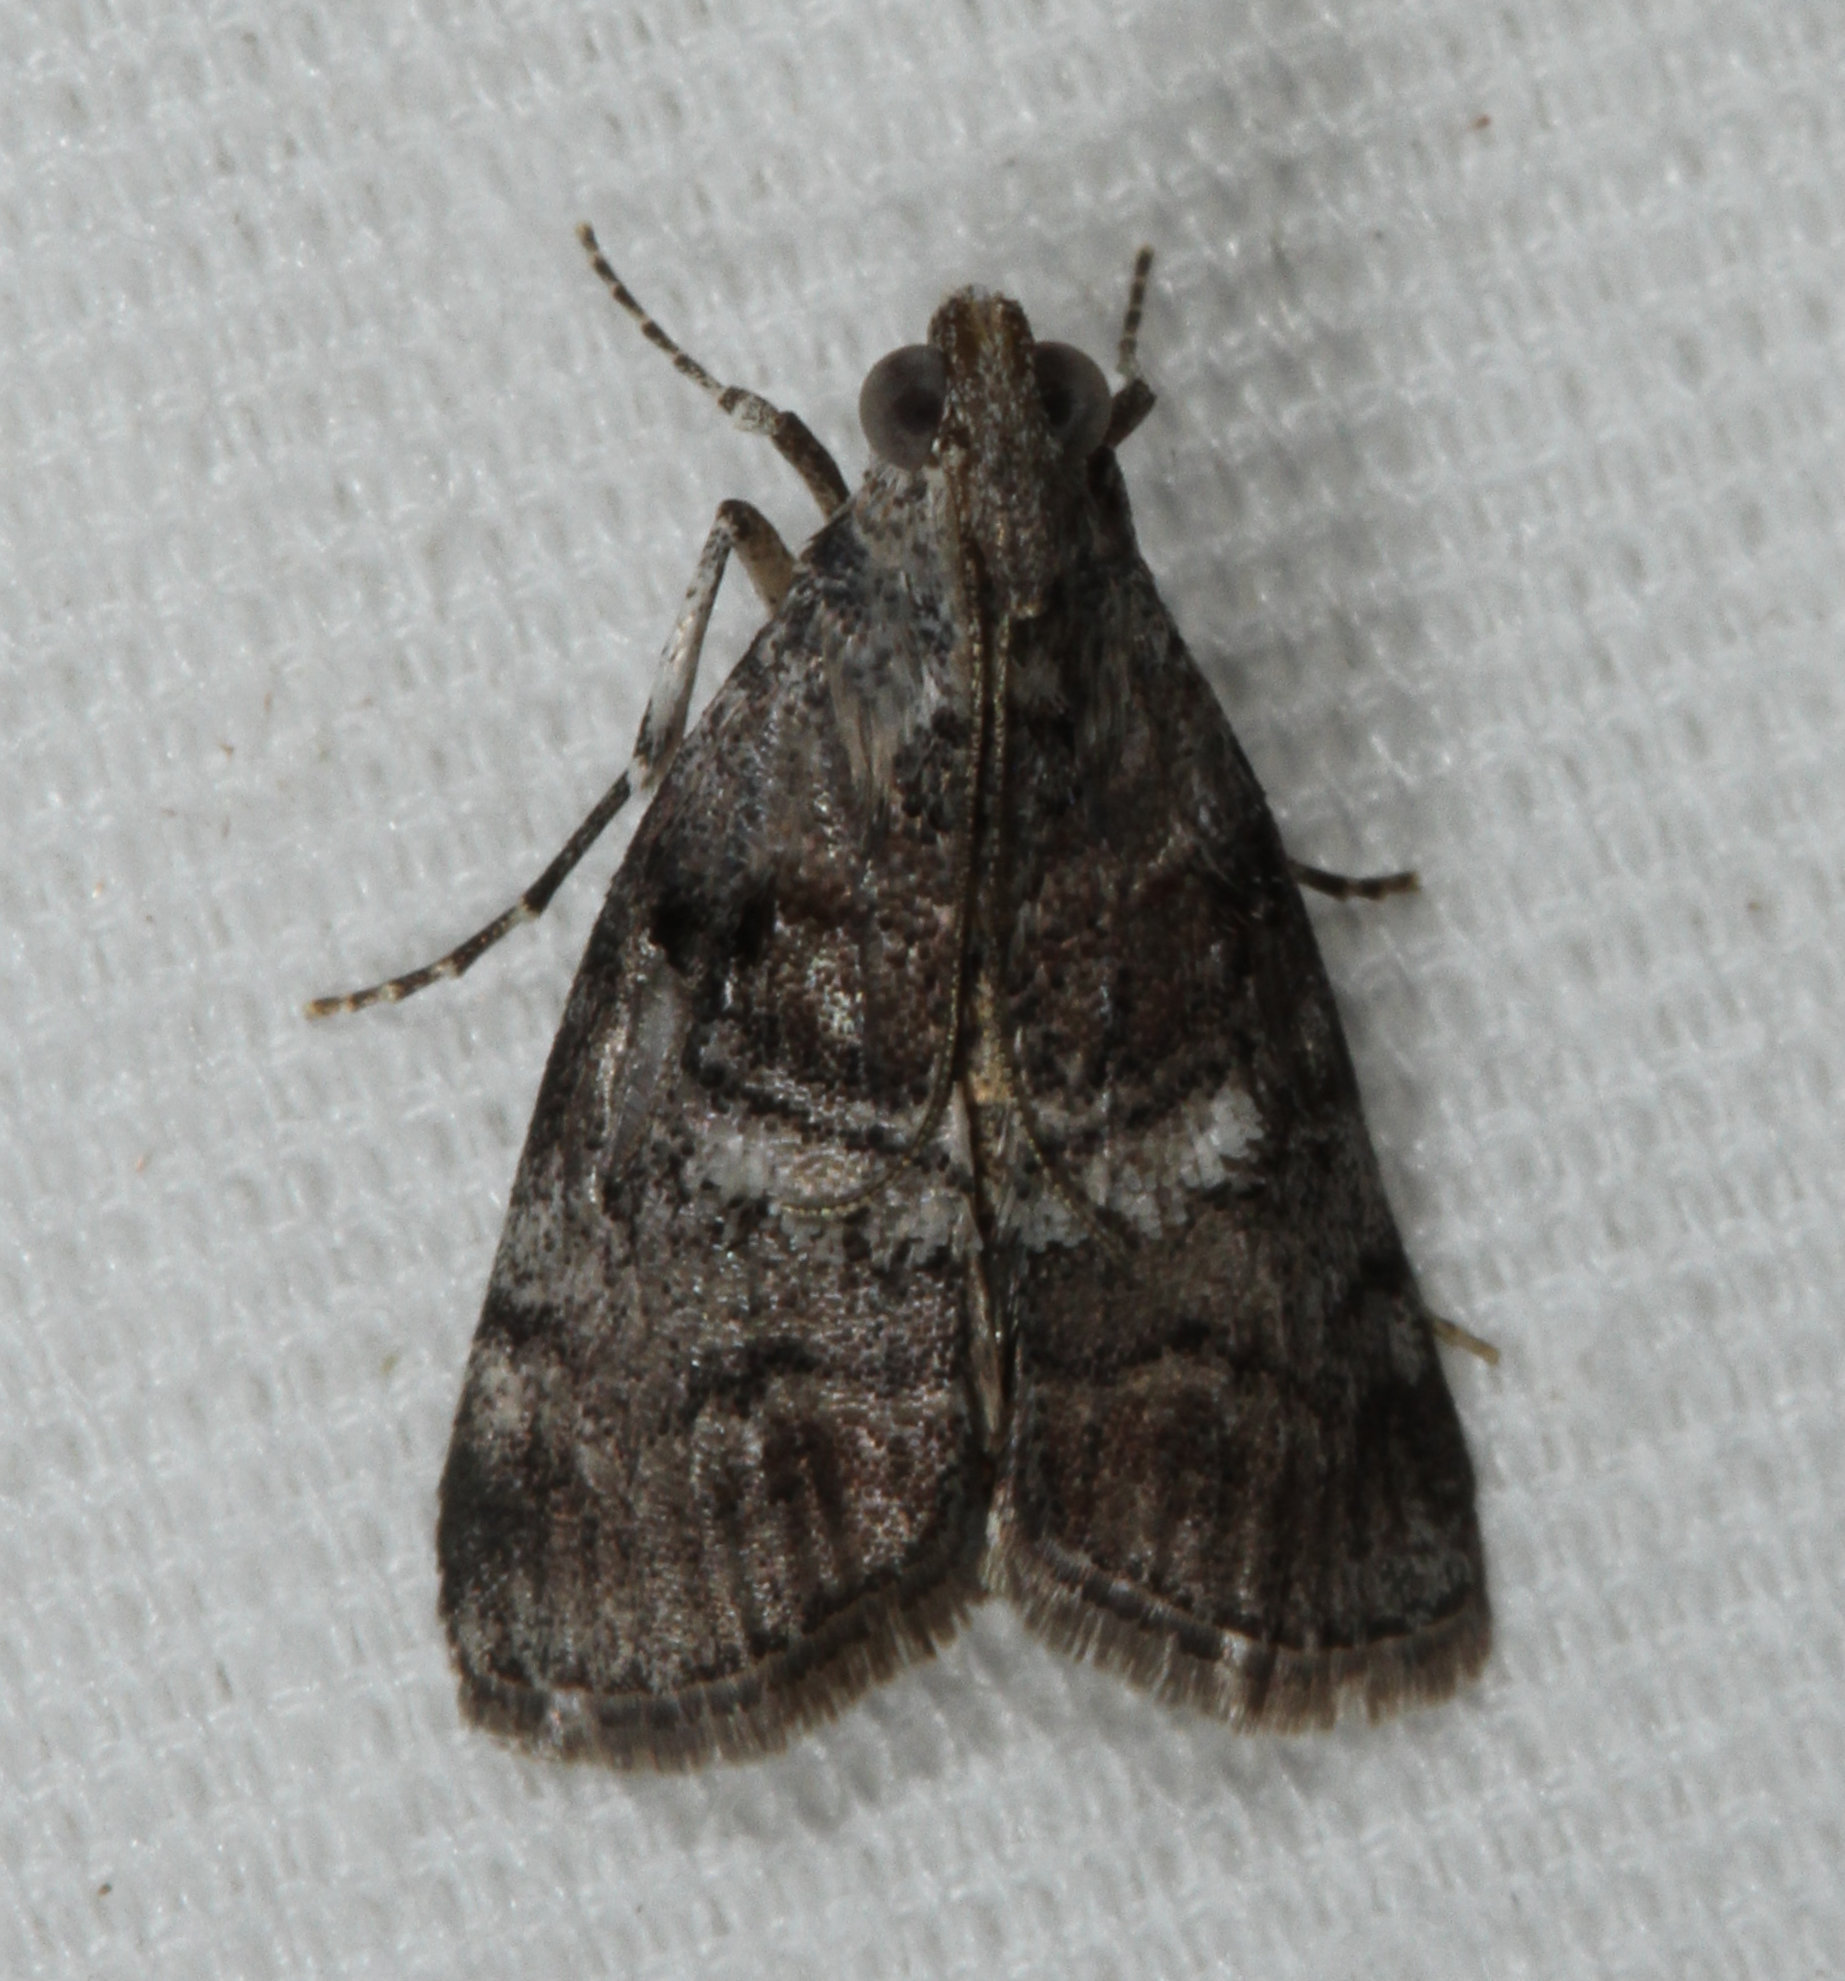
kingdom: Animalia
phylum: Arthropoda
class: Insecta
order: Lepidoptera
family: Pyralidae
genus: Pococera
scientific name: Pococera asperatella
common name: Maple webworm moth
